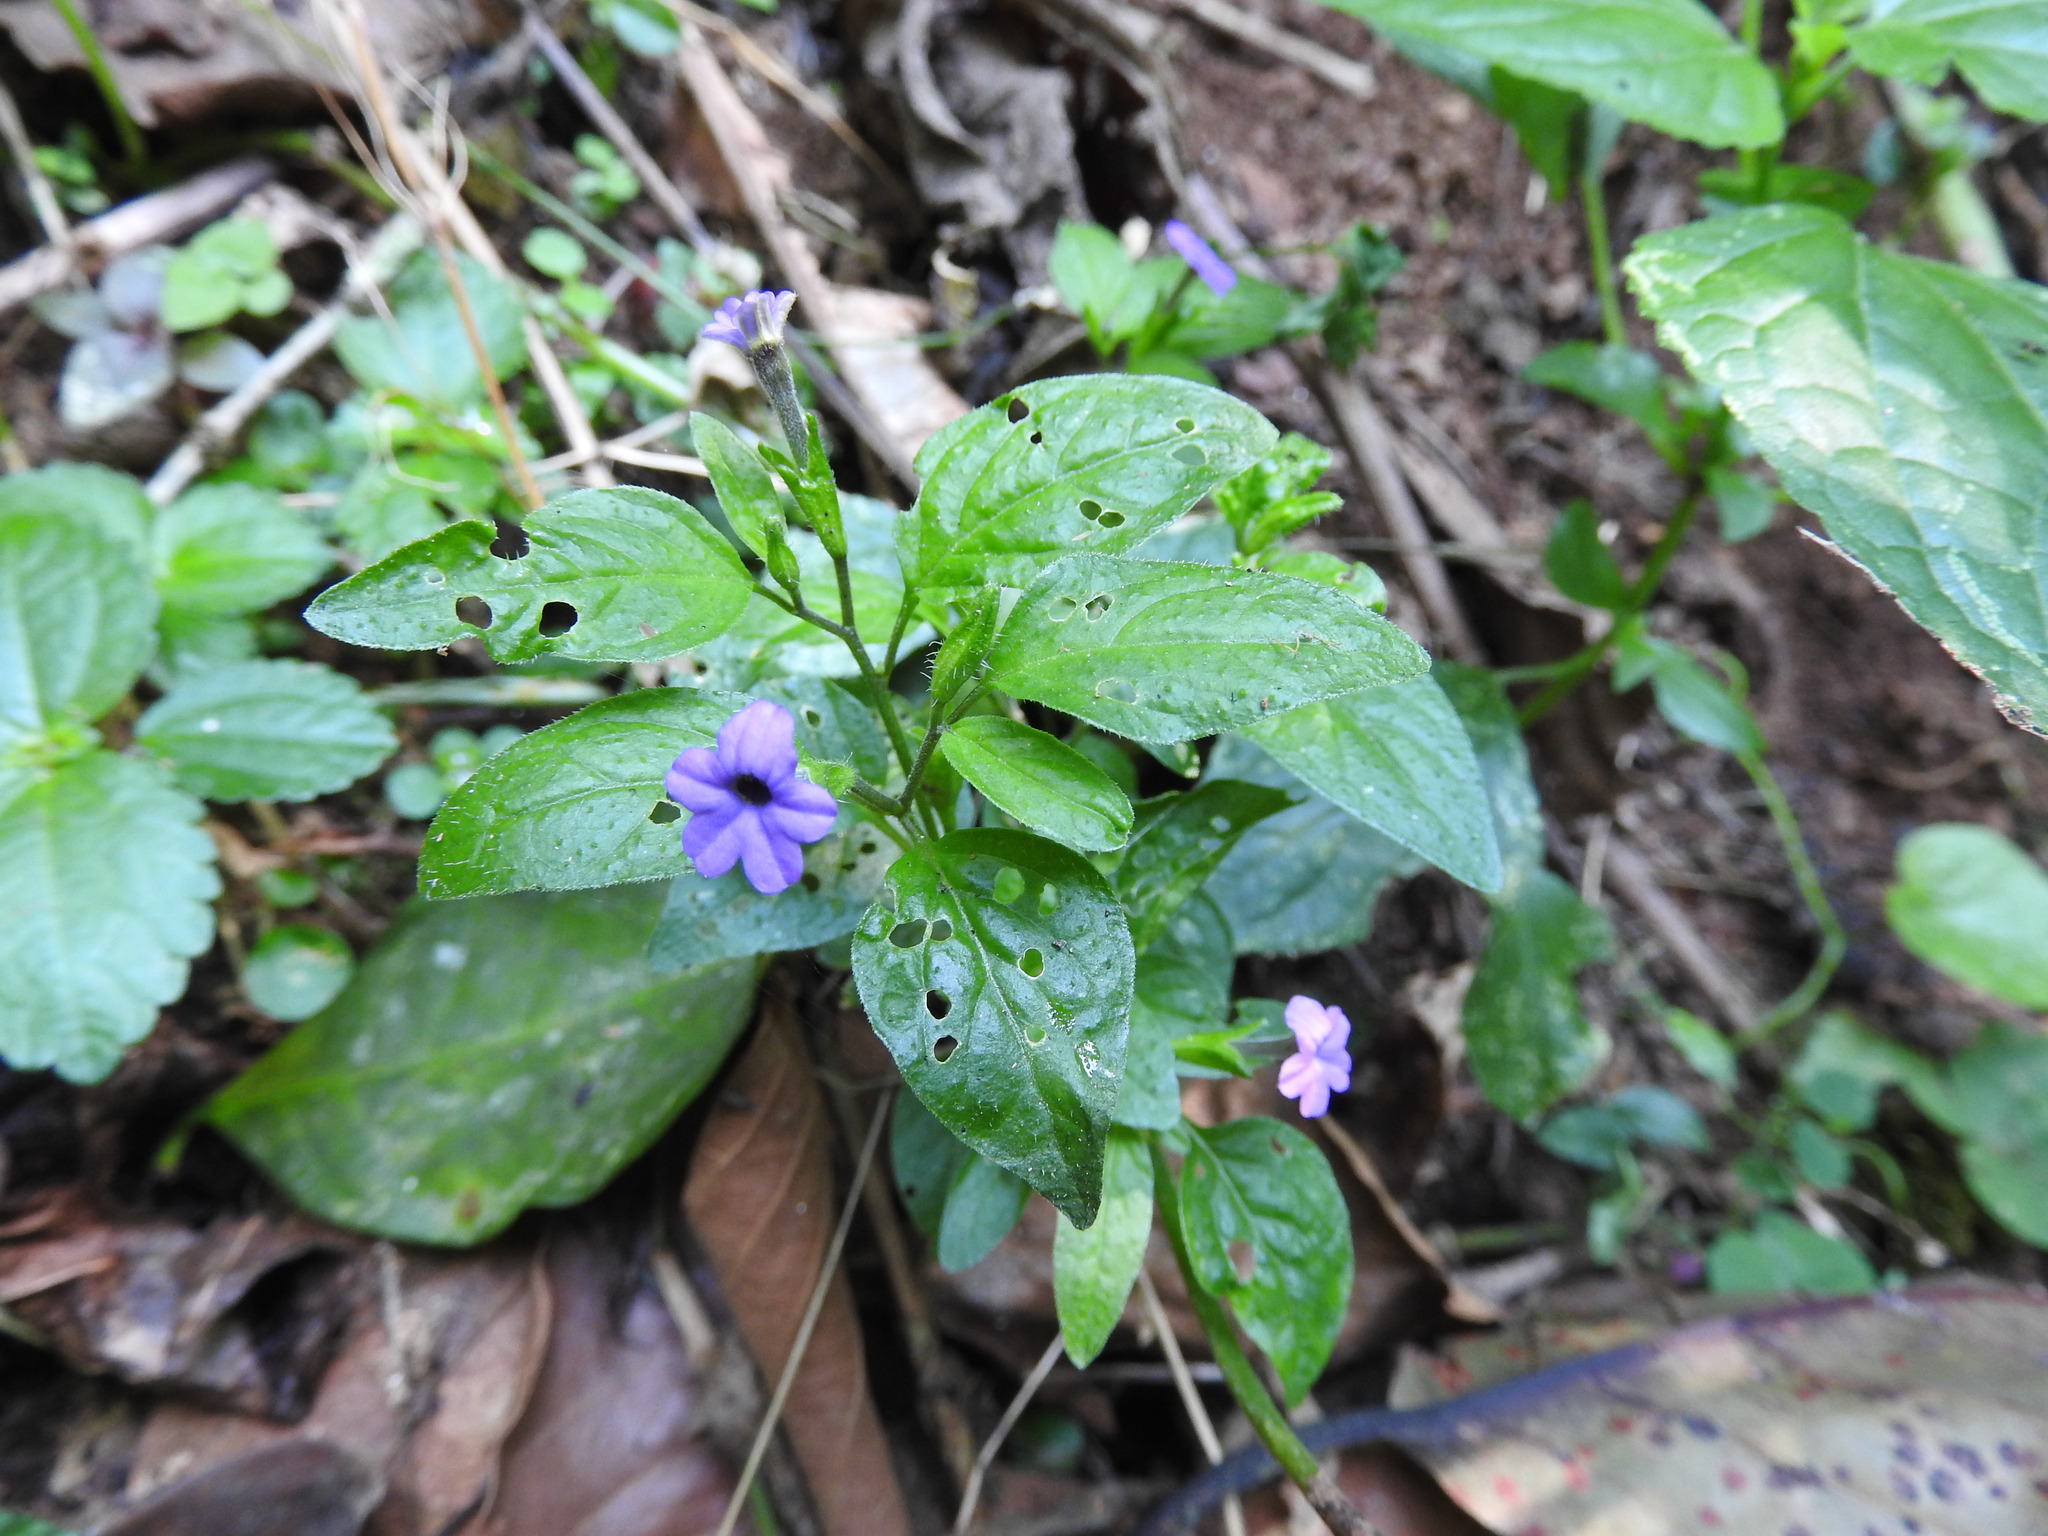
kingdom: Plantae
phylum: Tracheophyta
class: Magnoliopsida
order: Solanales
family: Solanaceae
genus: Browallia
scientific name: Browallia americana
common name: Jamaican forget-me-not
